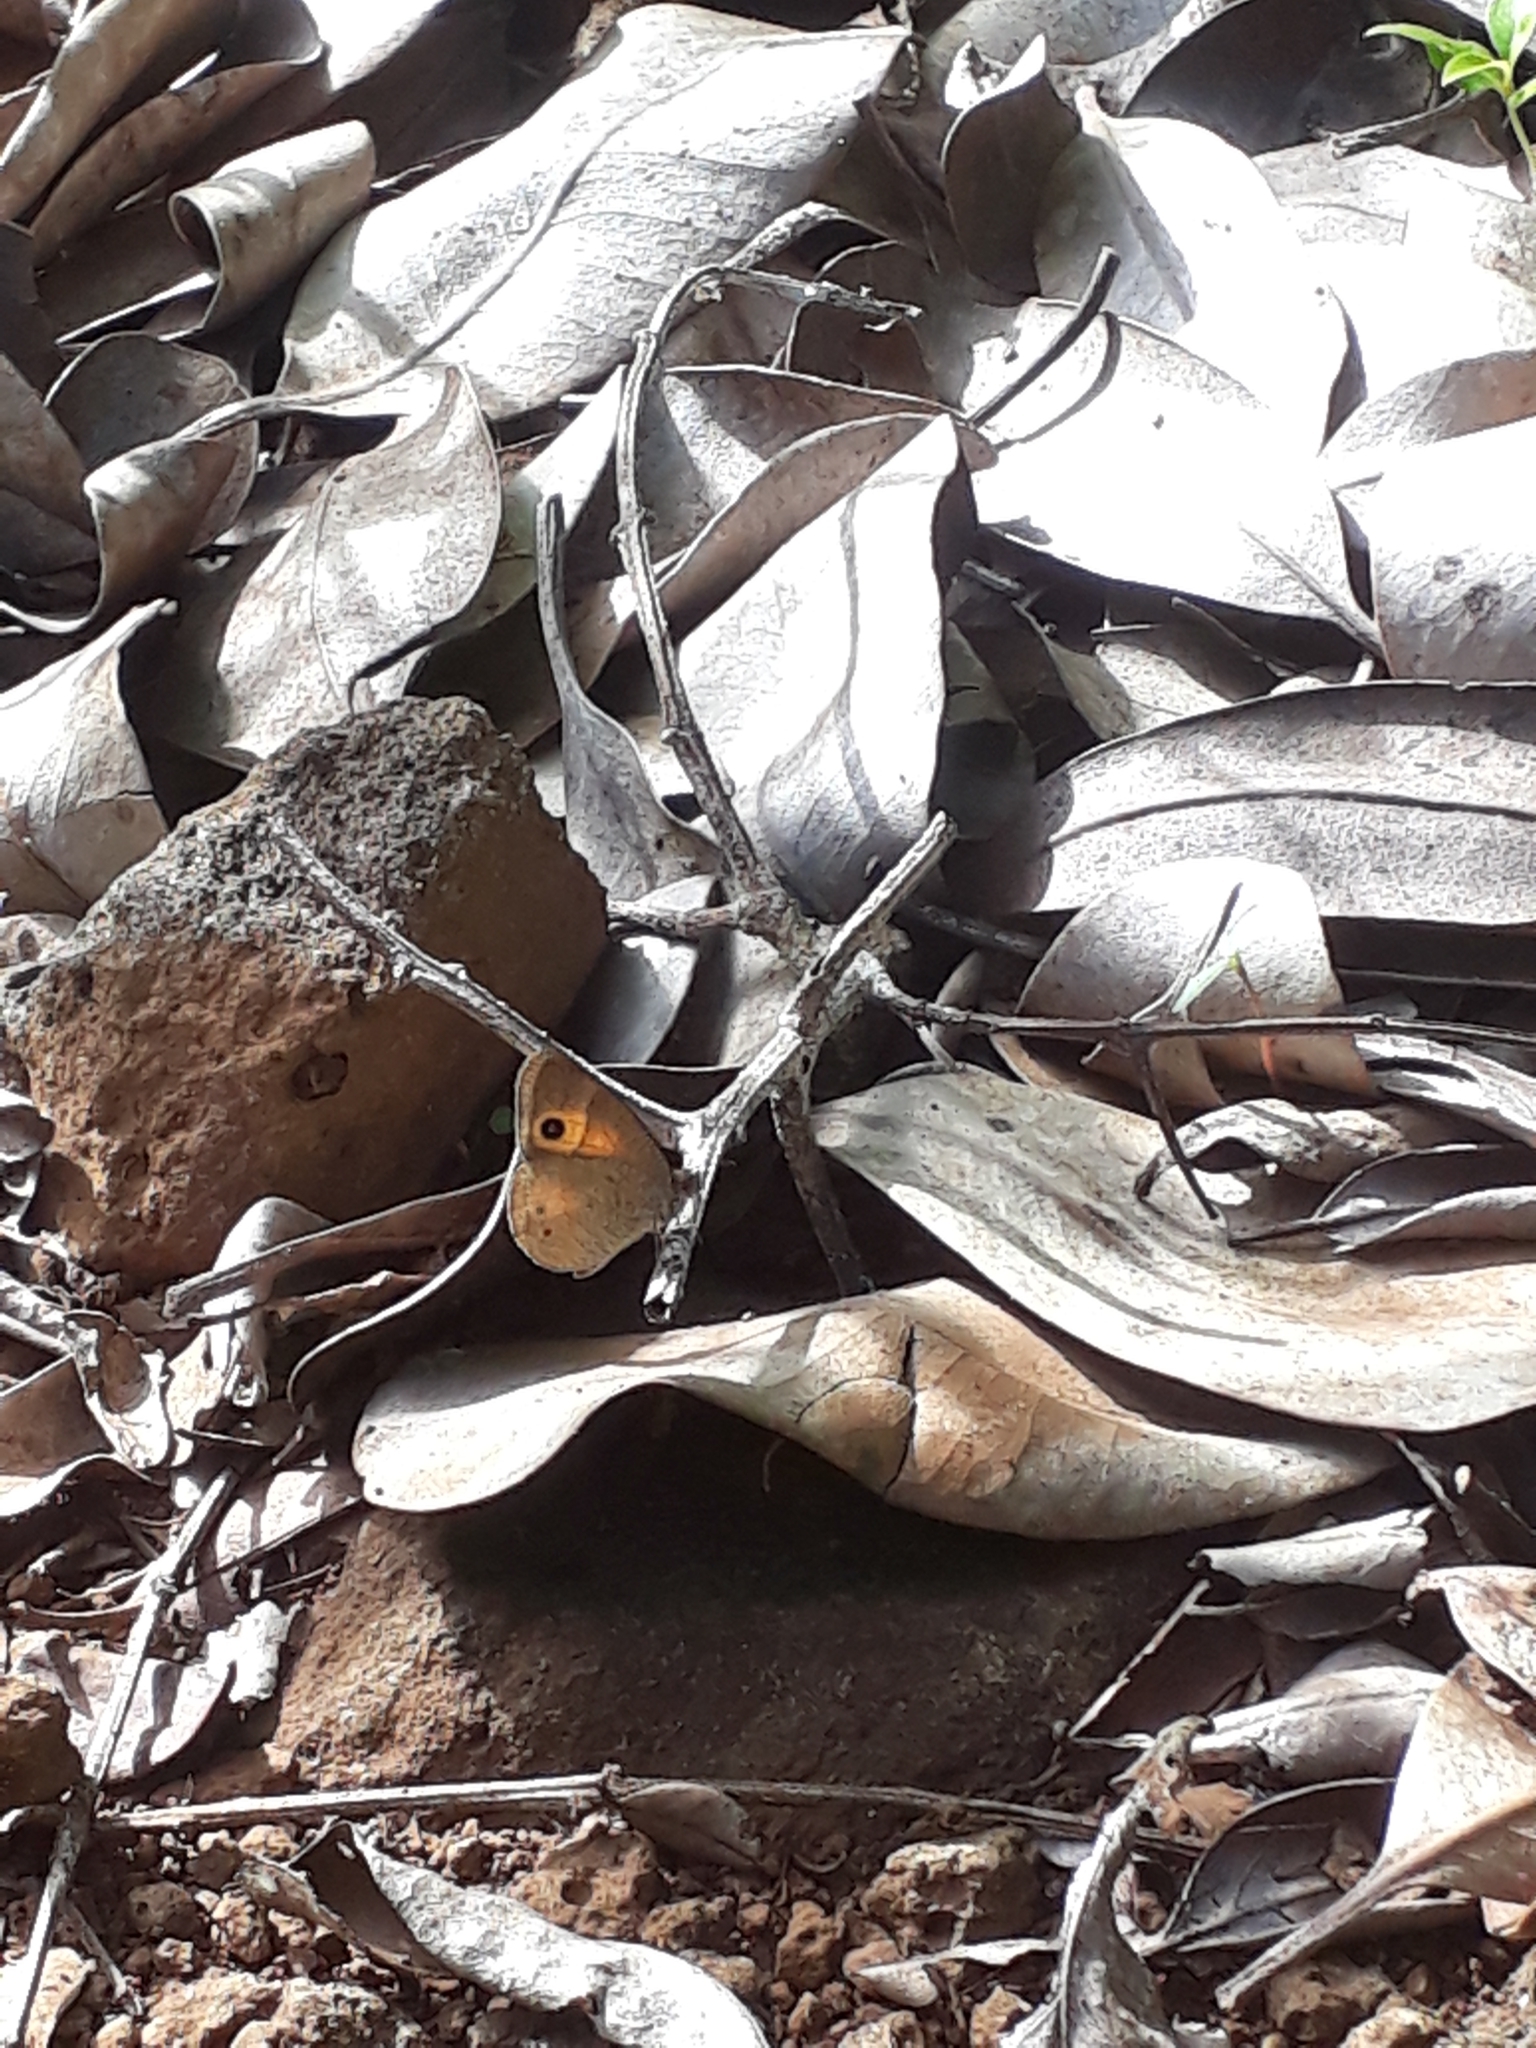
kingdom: Animalia
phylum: Arthropoda
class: Insecta
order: Lepidoptera
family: Nymphalidae
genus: Henotesia
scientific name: Henotesia narcissus
